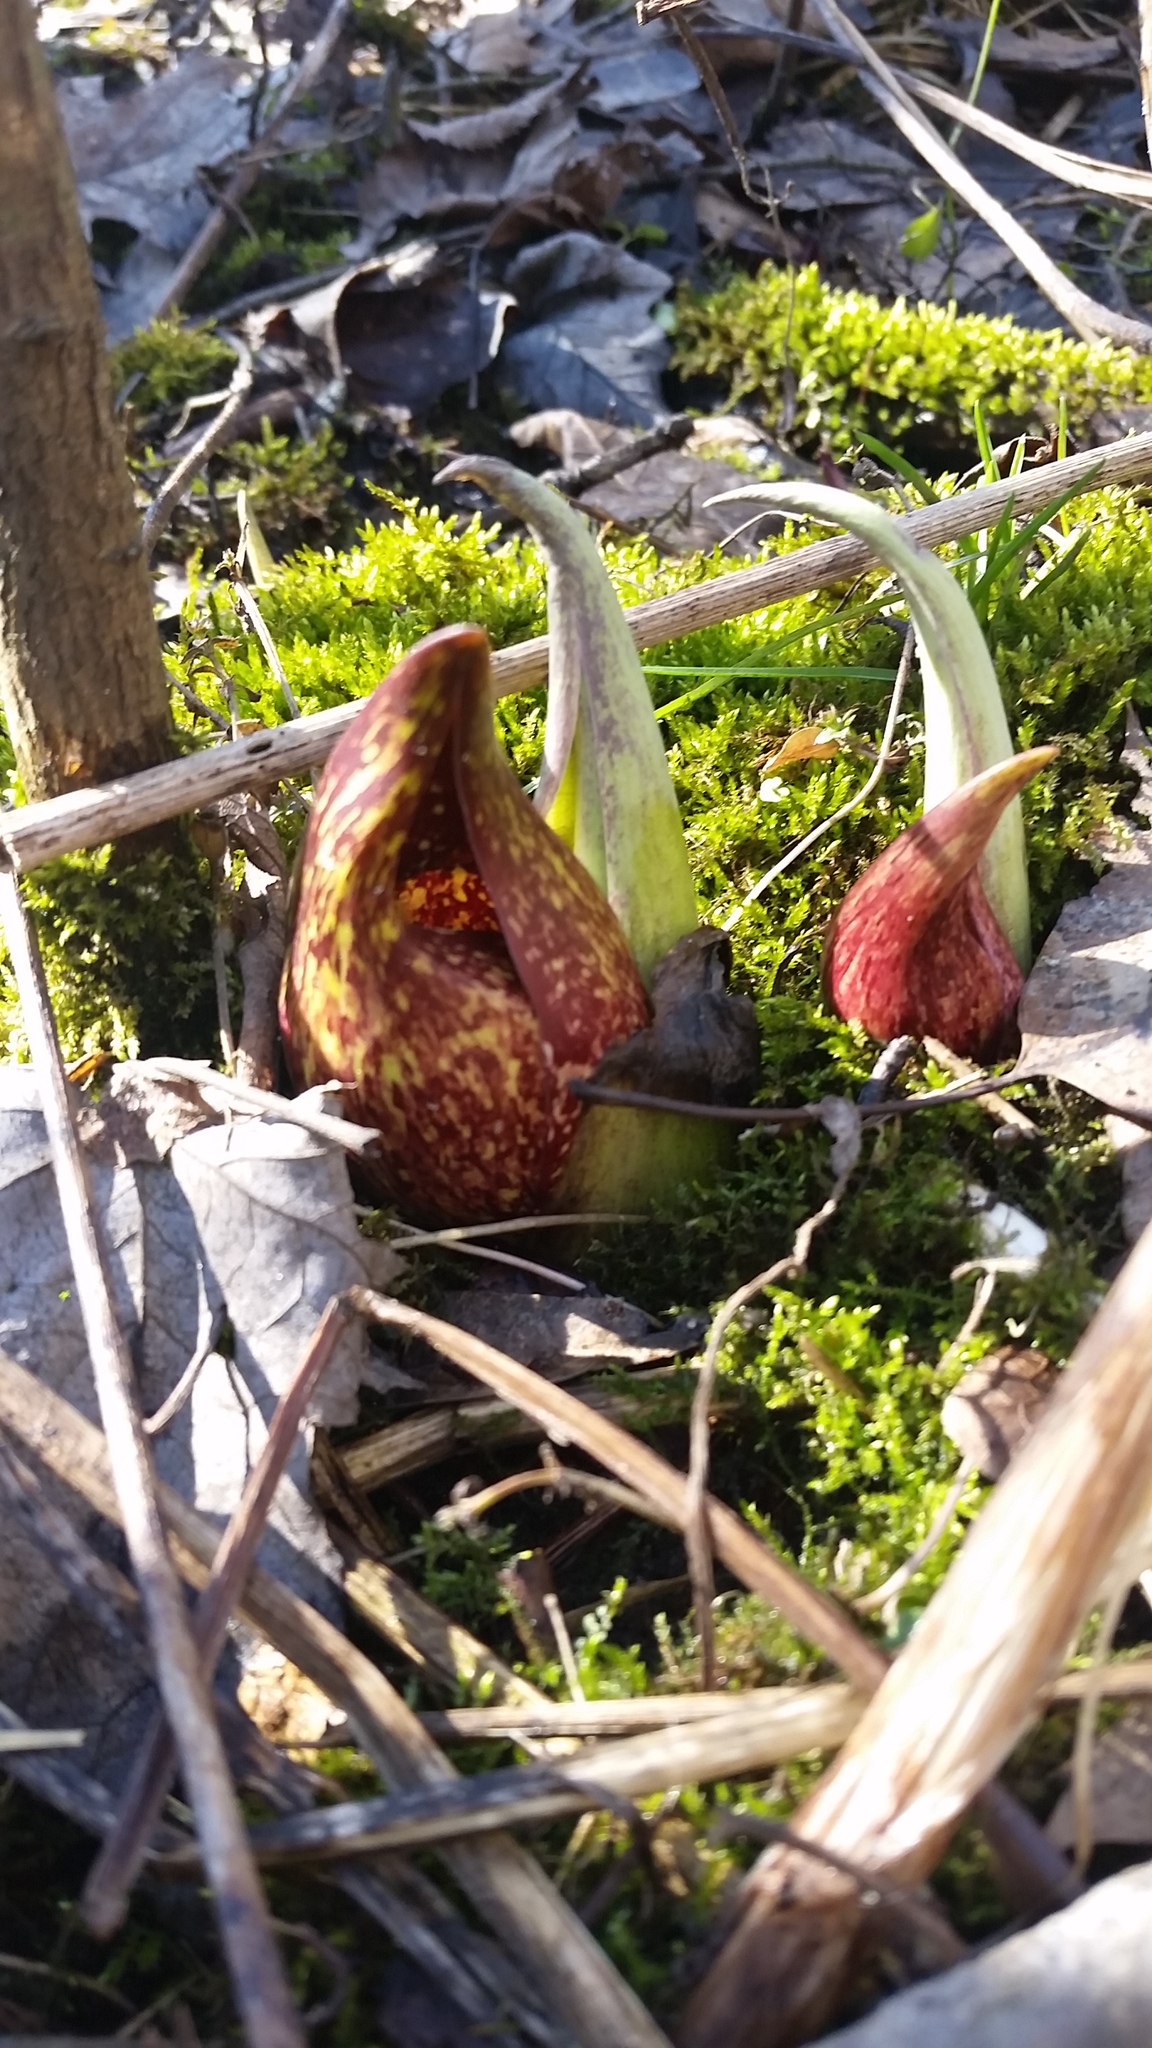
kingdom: Plantae
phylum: Tracheophyta
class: Liliopsida
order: Alismatales
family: Araceae
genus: Symplocarpus
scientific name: Symplocarpus foetidus
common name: Eastern skunk cabbage
